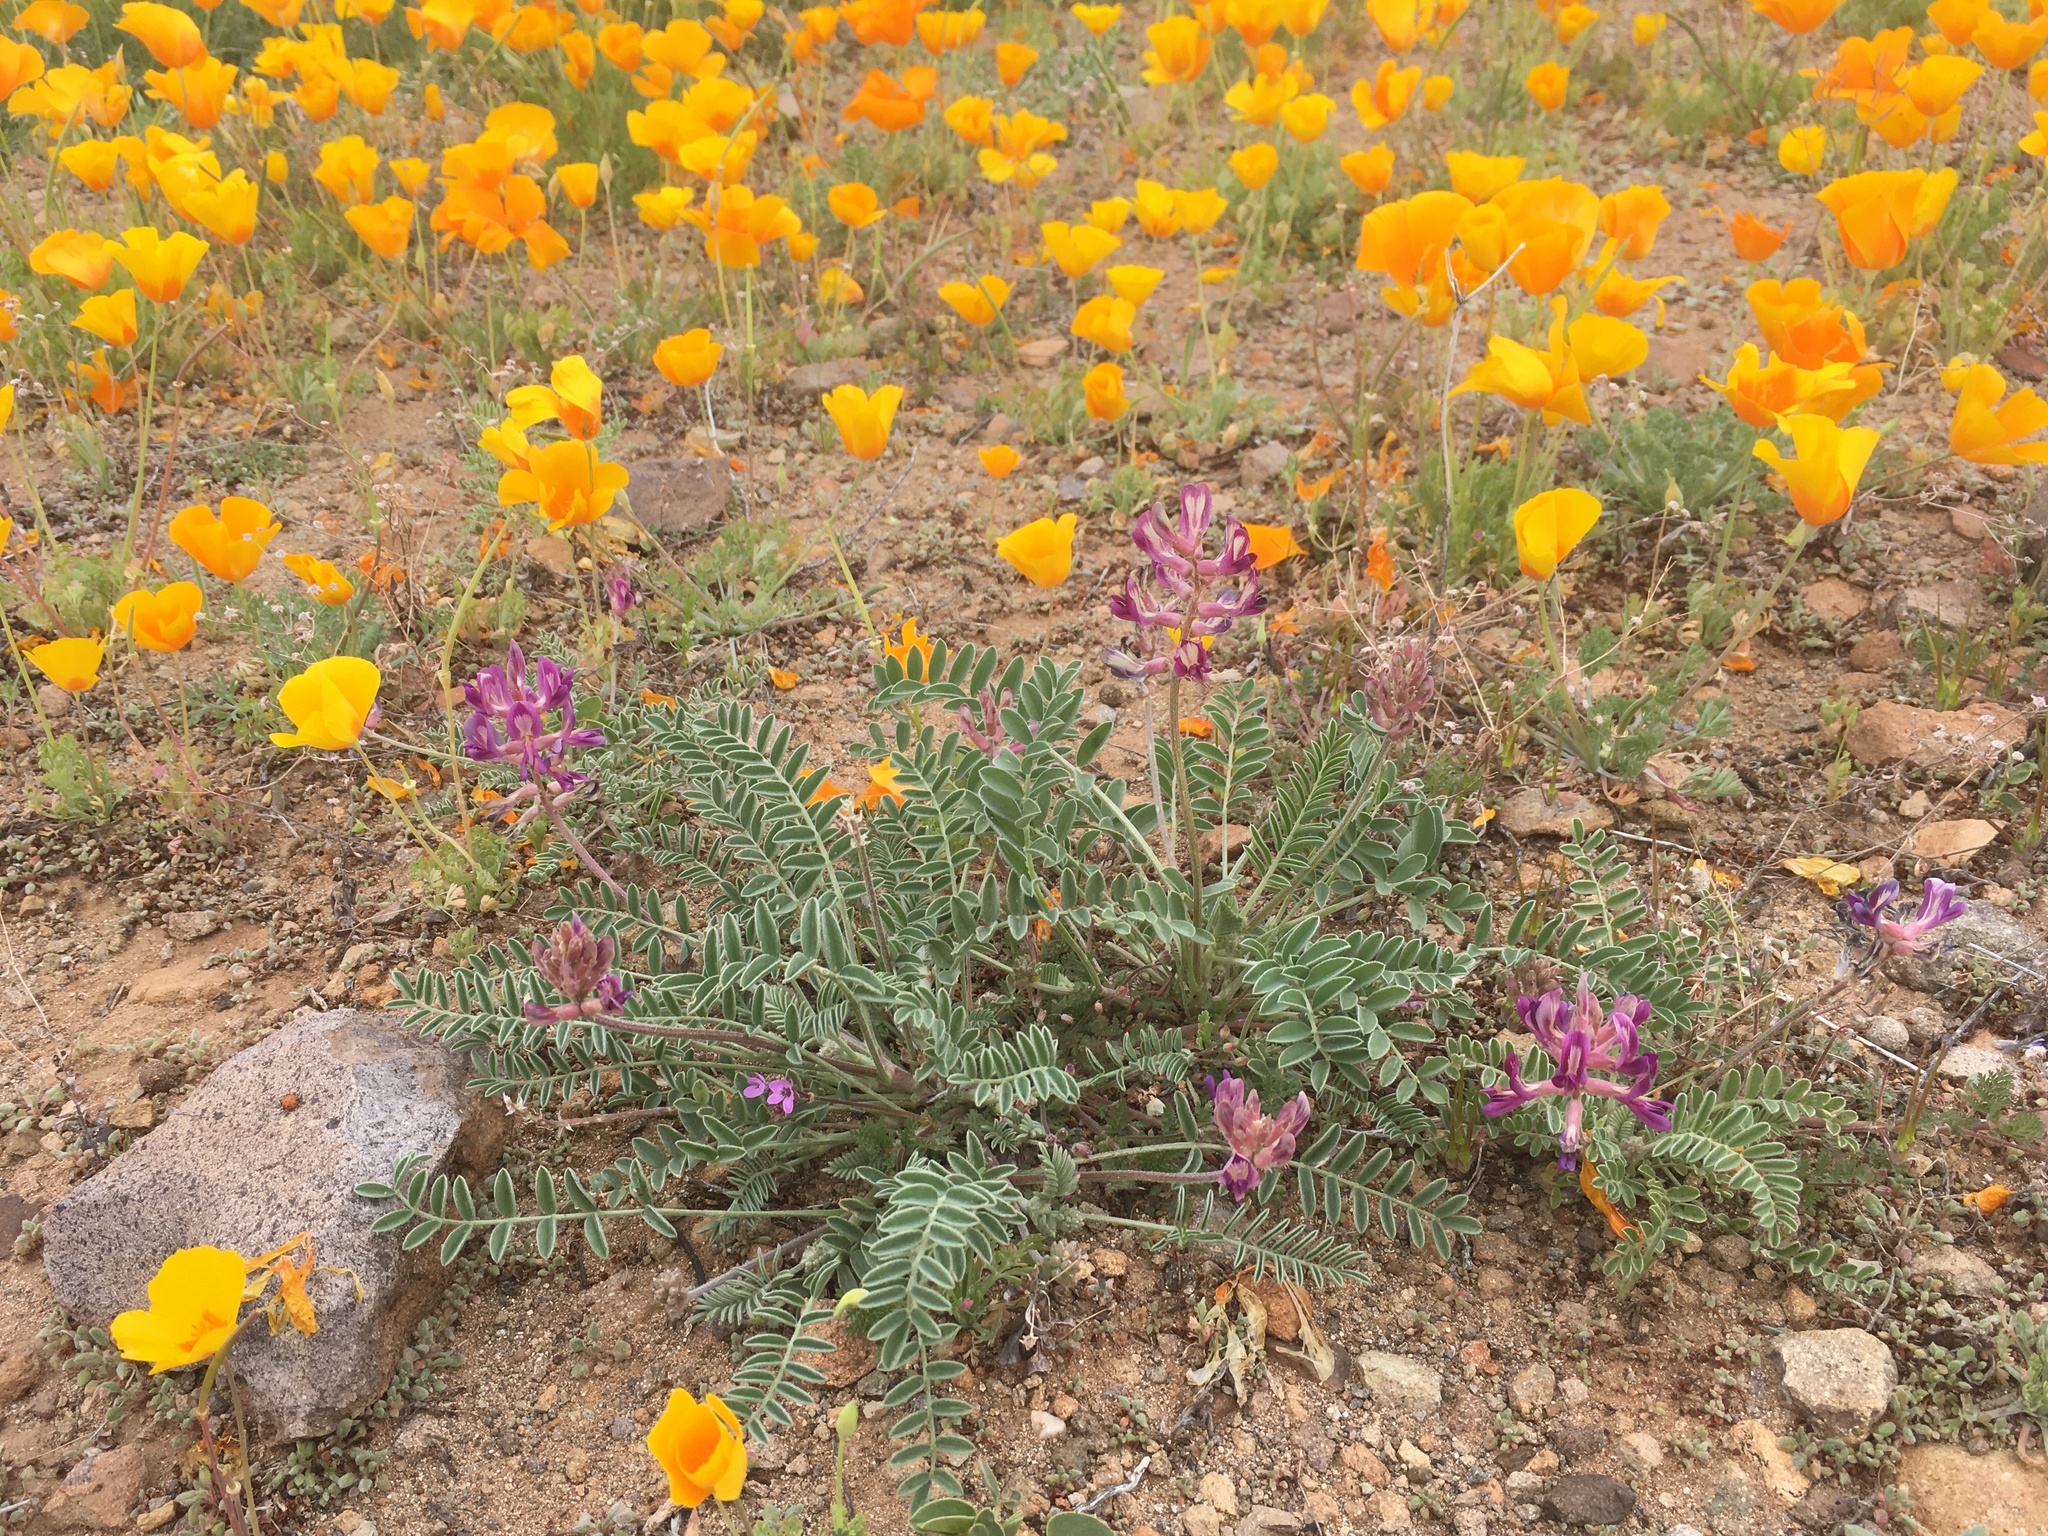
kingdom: Plantae
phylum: Tracheophyta
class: Magnoliopsida
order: Fabales
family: Fabaceae
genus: Astragalus
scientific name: Astragalus tephrodes
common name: Ashen milk-vetch
